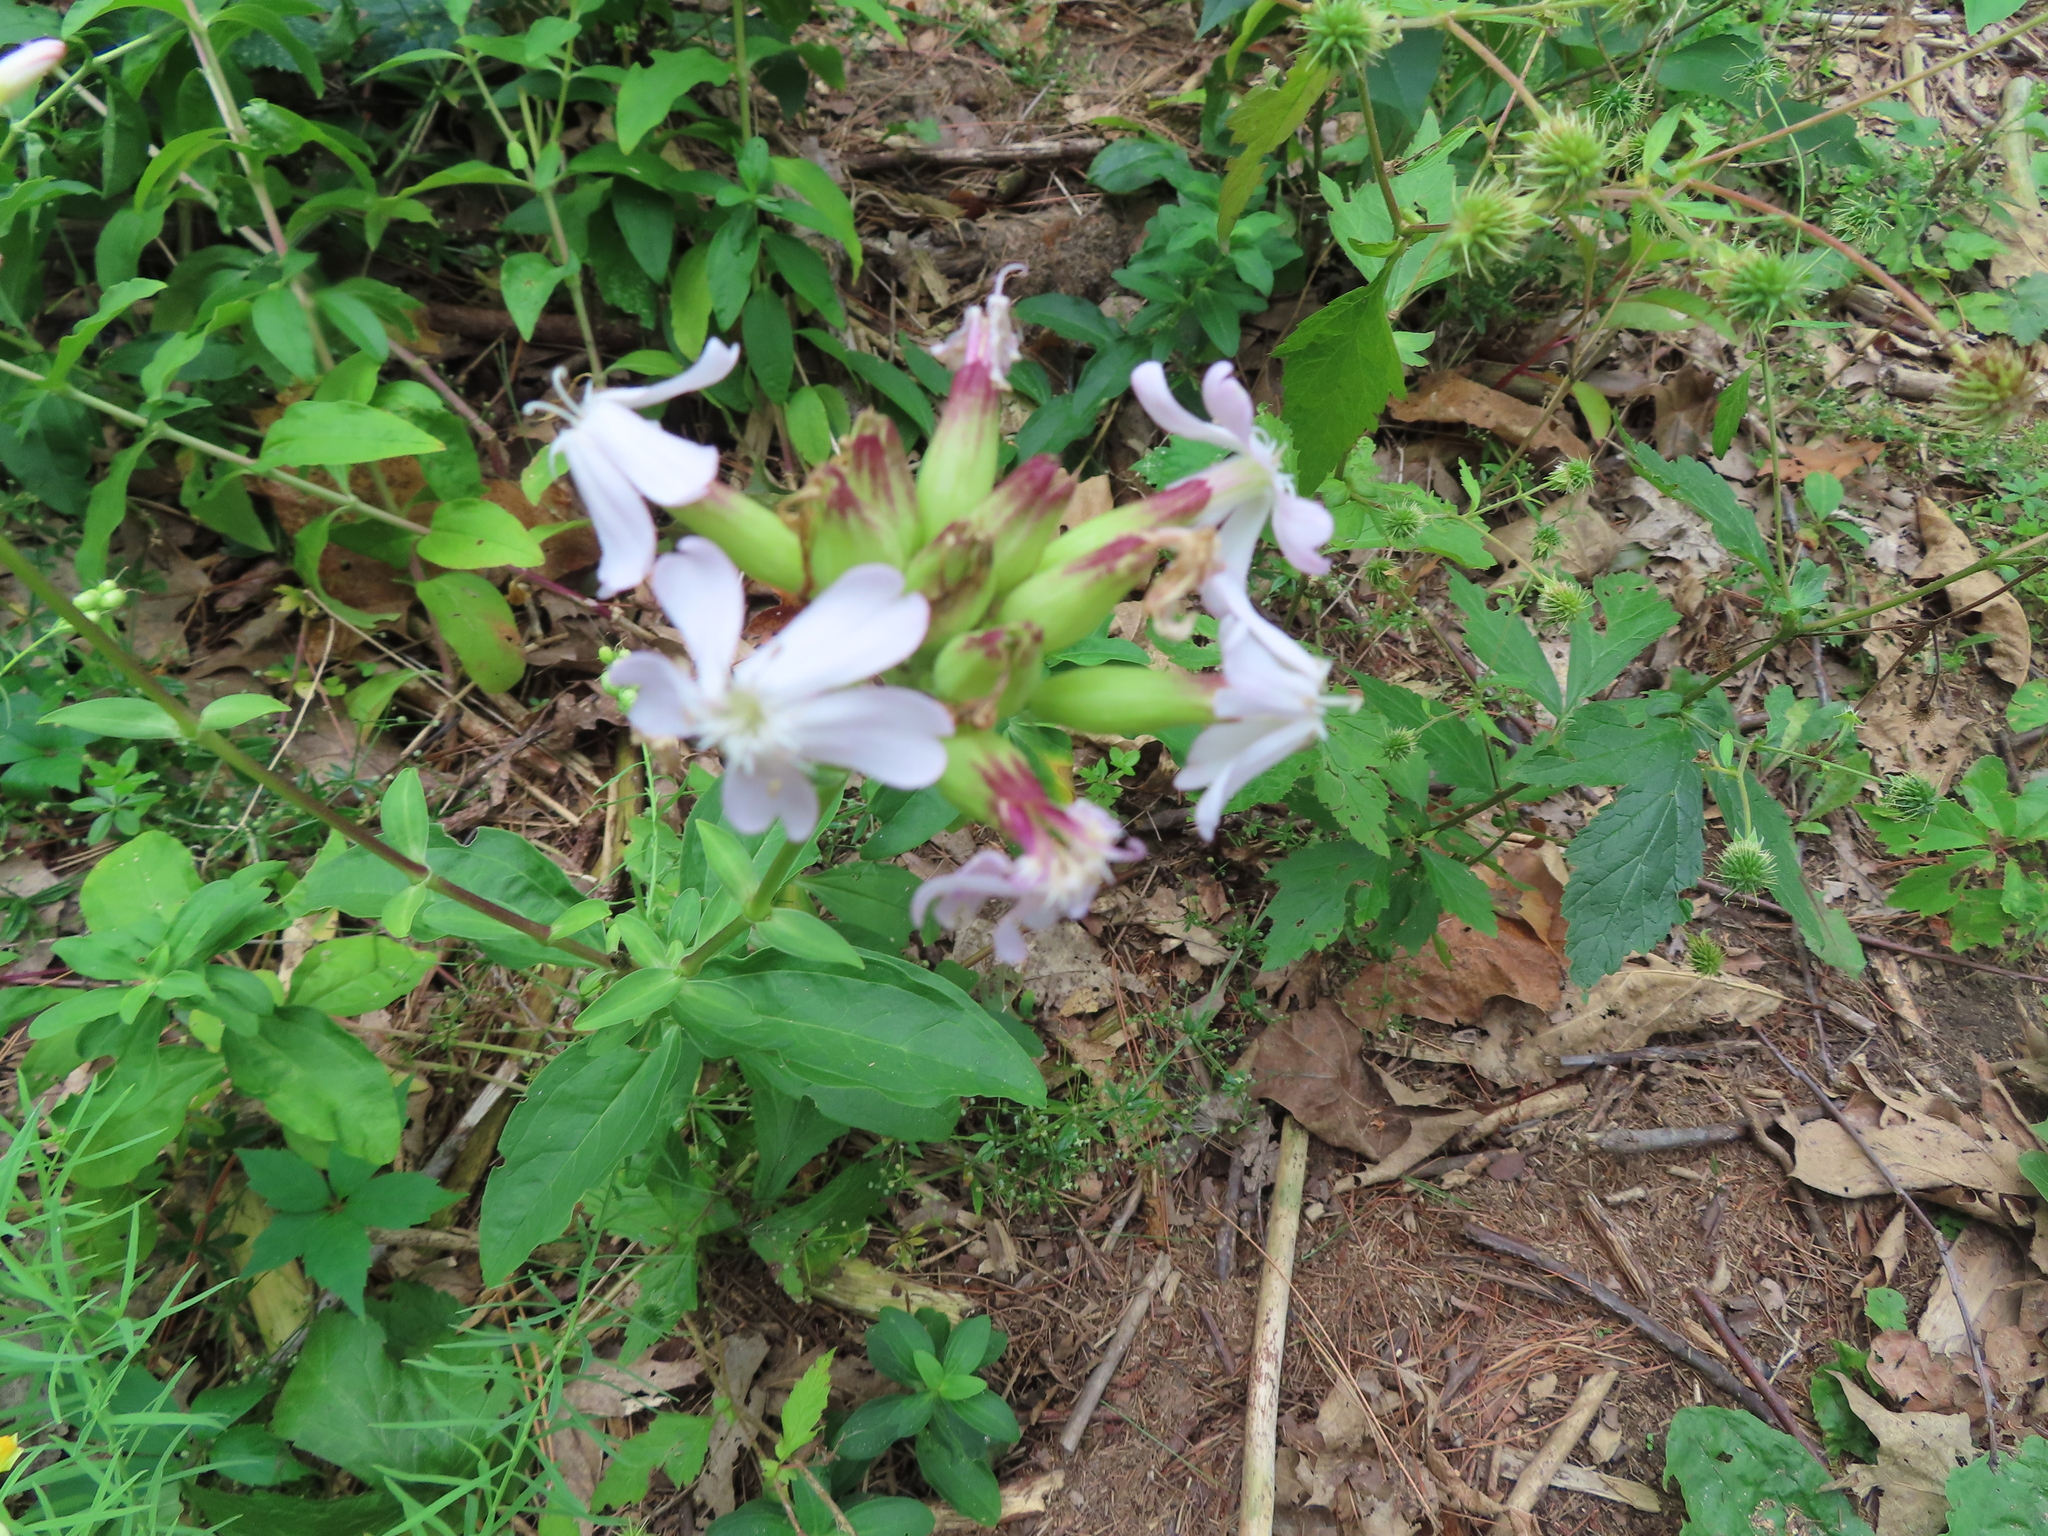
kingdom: Plantae
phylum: Tracheophyta
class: Magnoliopsida
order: Caryophyllales
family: Caryophyllaceae
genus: Saponaria
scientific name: Saponaria officinalis
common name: Soapwort
